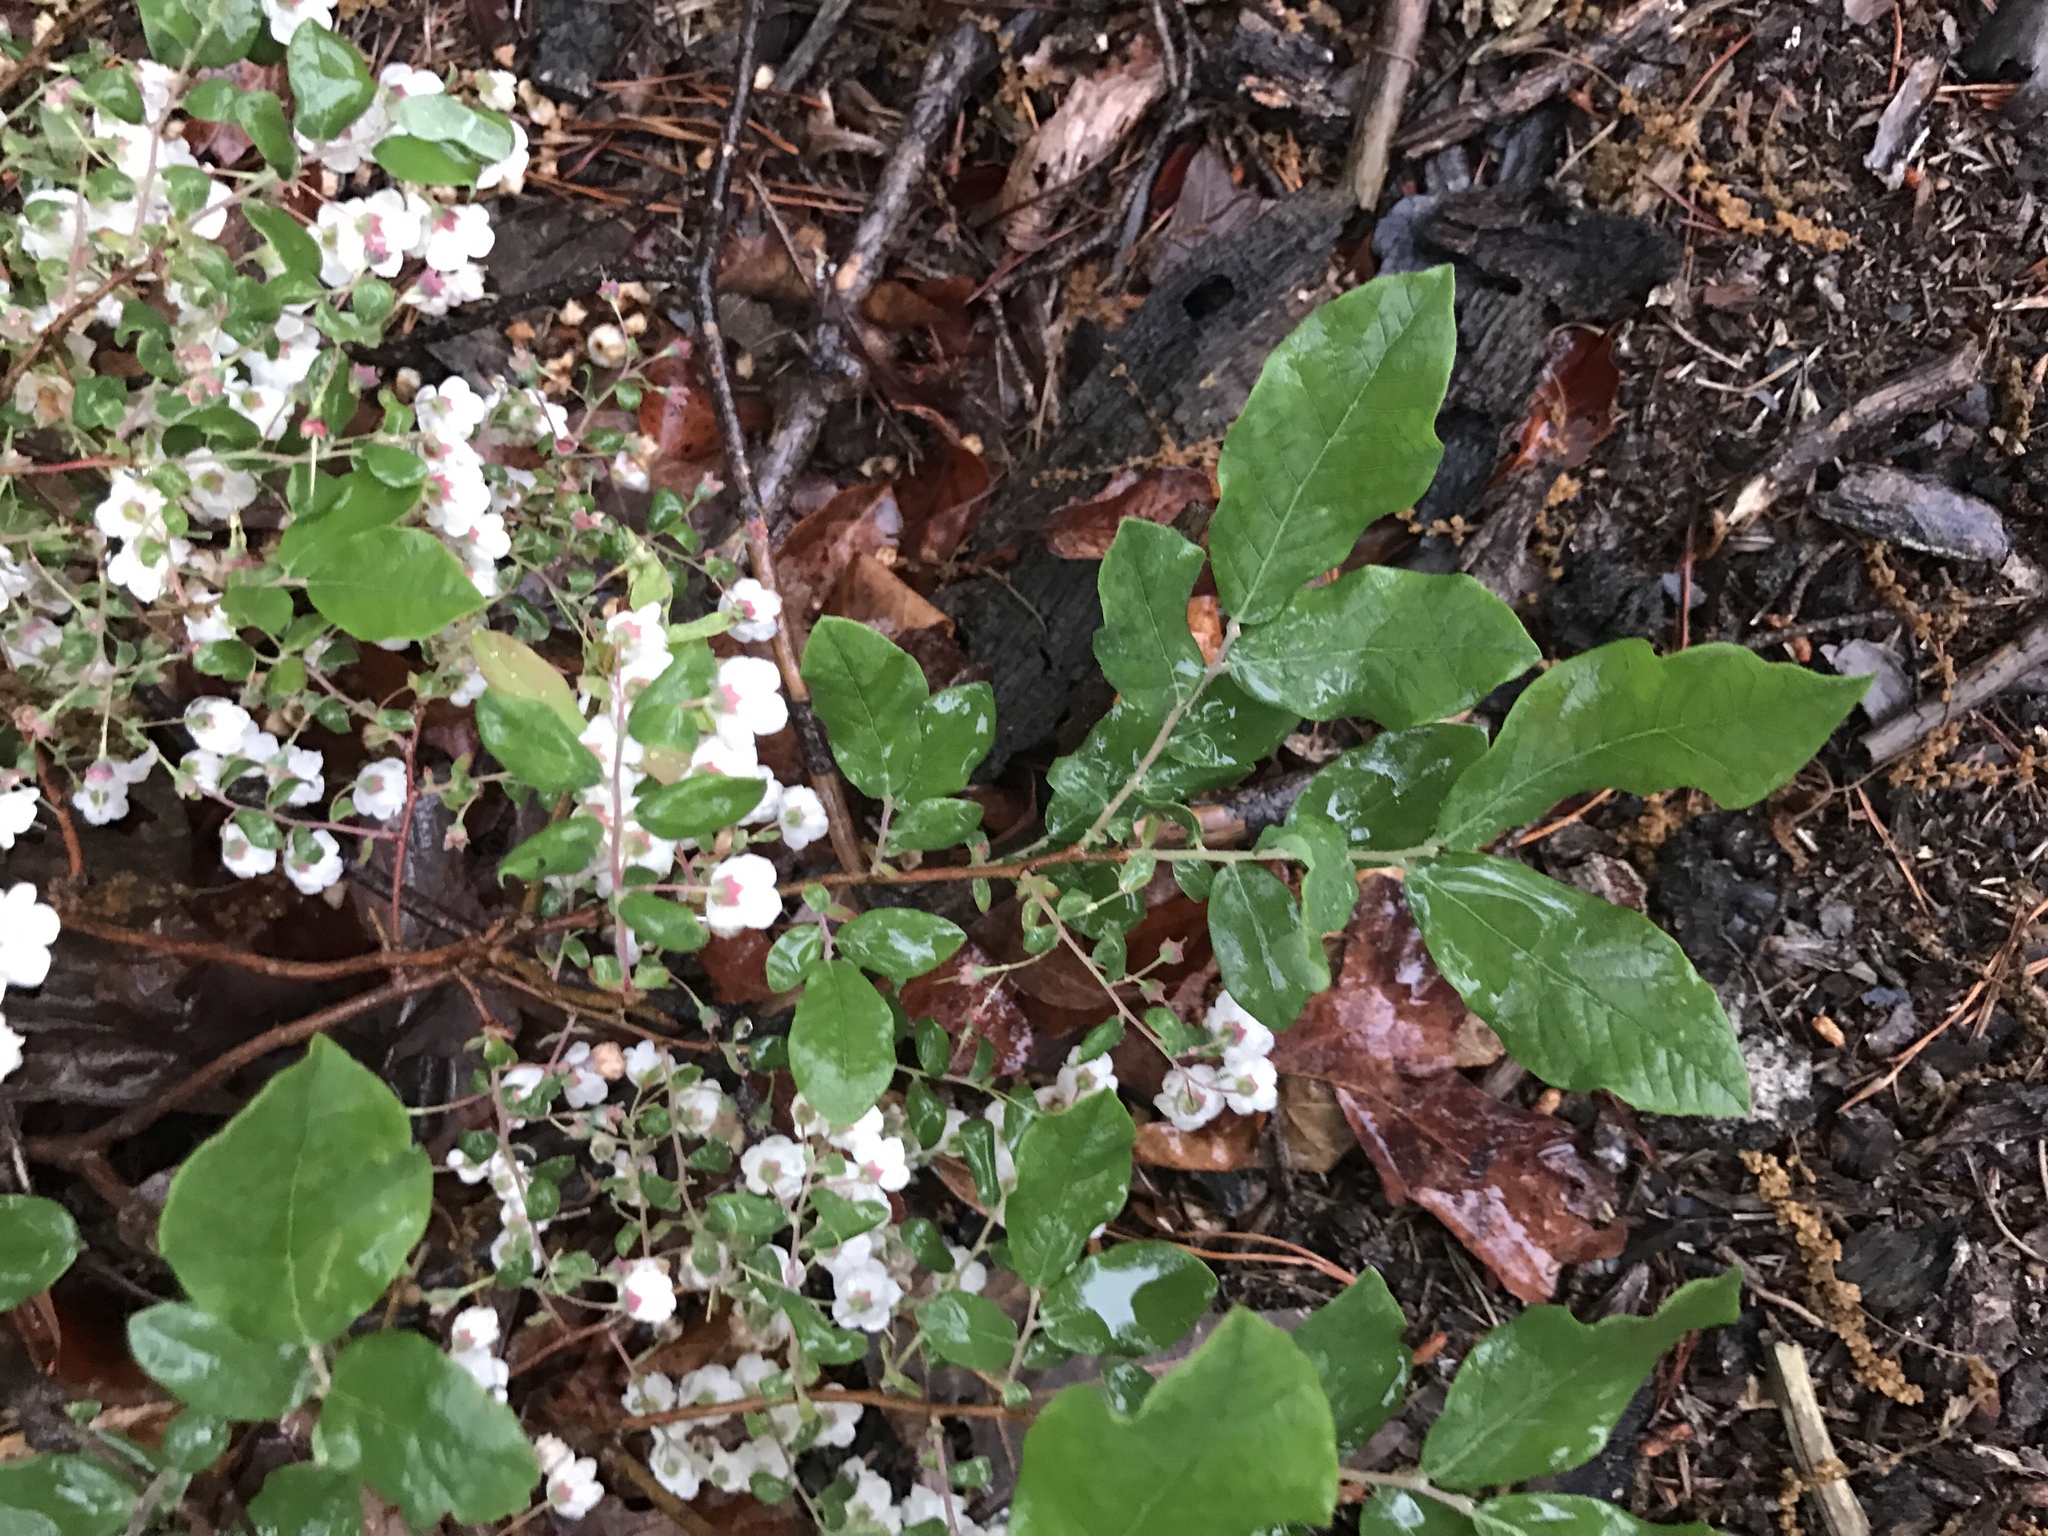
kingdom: Plantae
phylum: Tracheophyta
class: Magnoliopsida
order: Ericales
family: Ericaceae
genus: Vaccinium
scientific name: Vaccinium stamineum
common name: Deerberry
